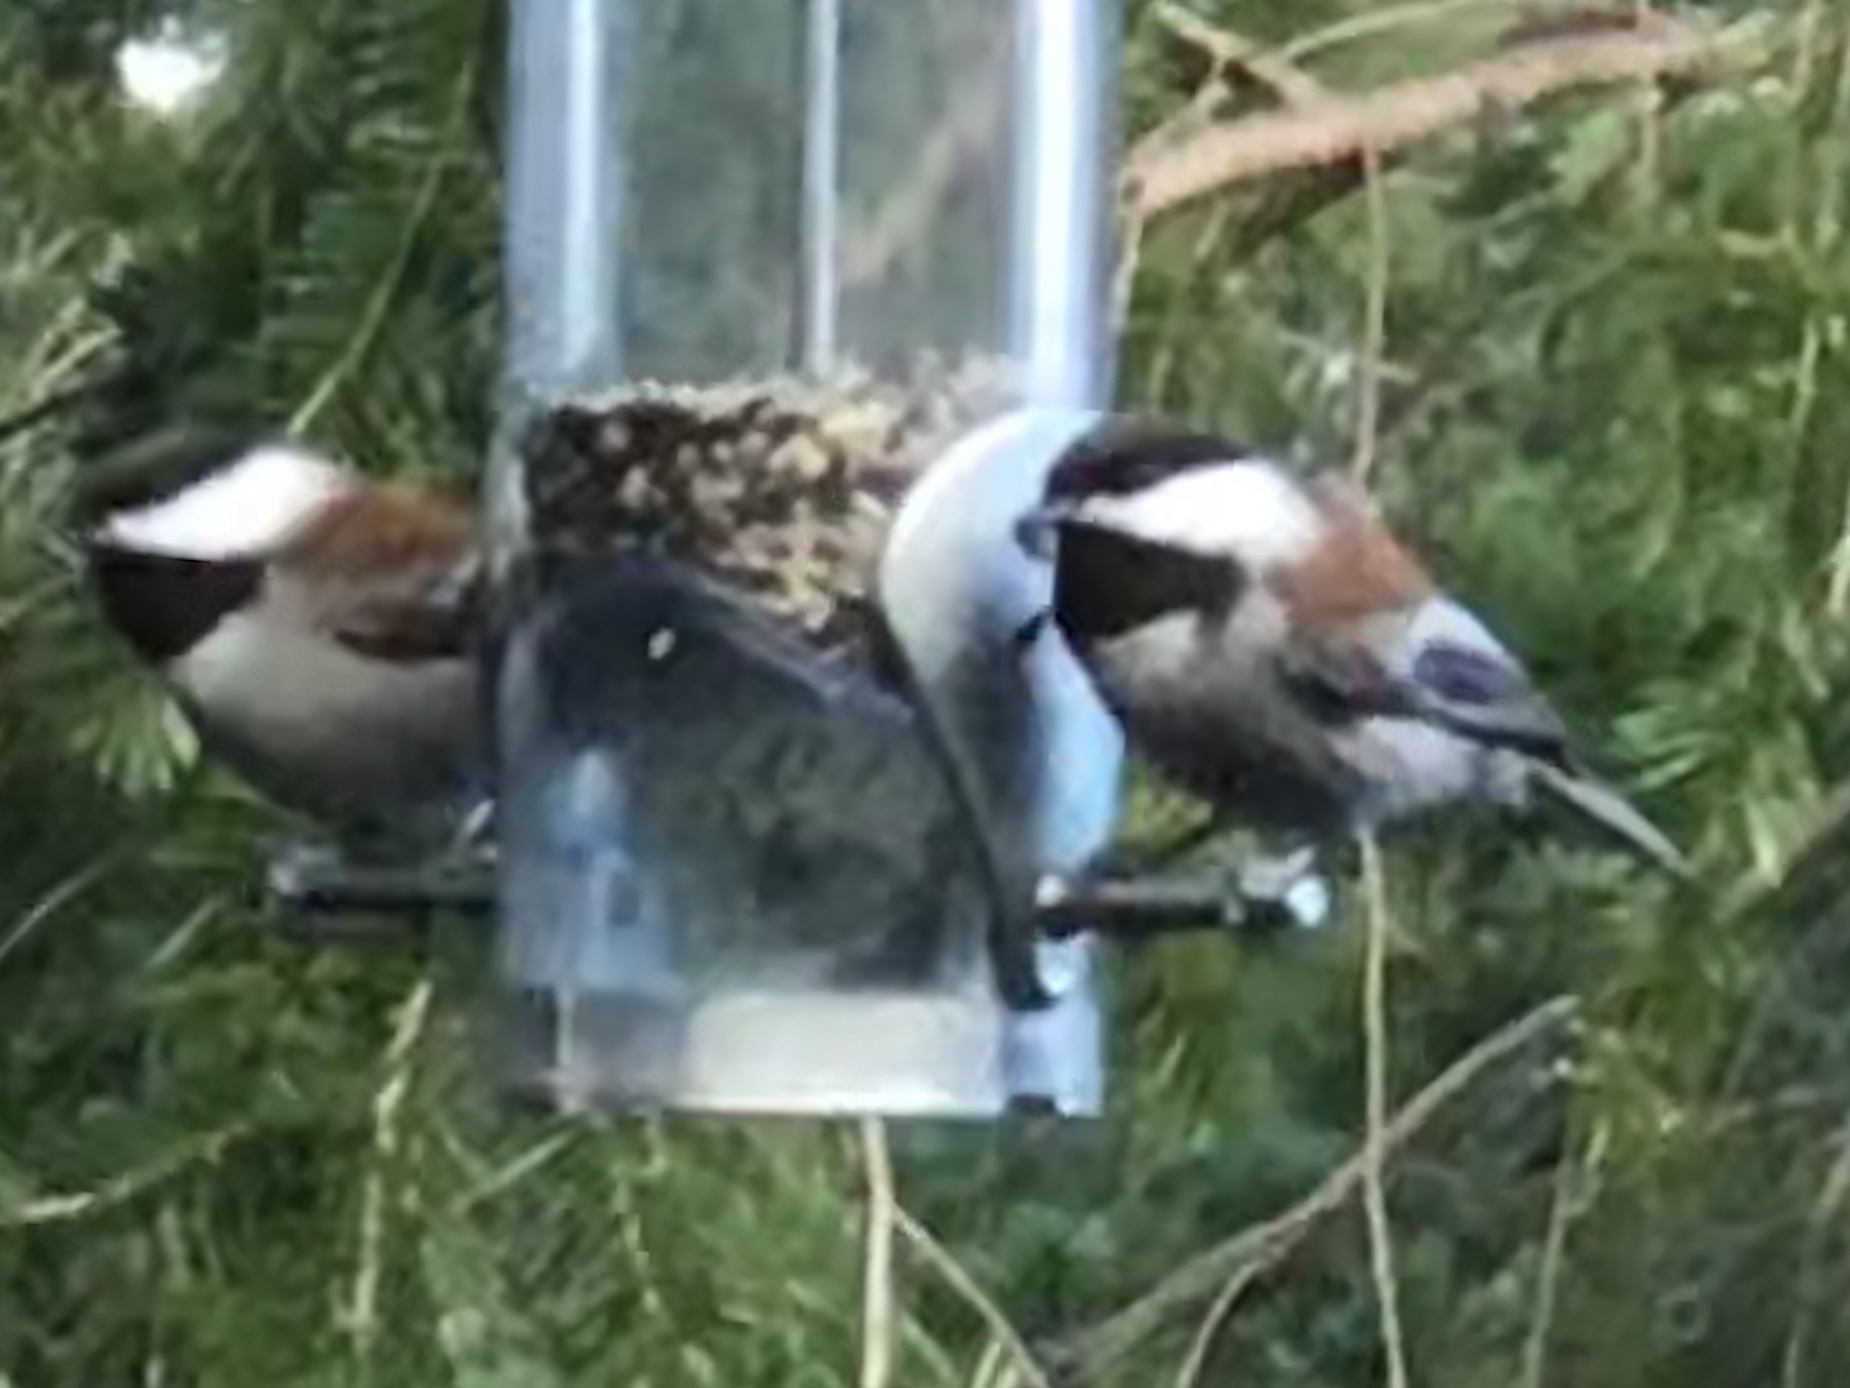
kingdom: Animalia
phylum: Chordata
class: Aves
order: Passeriformes
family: Paridae
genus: Poecile
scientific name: Poecile rufescens
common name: Chestnut-backed chickadee
